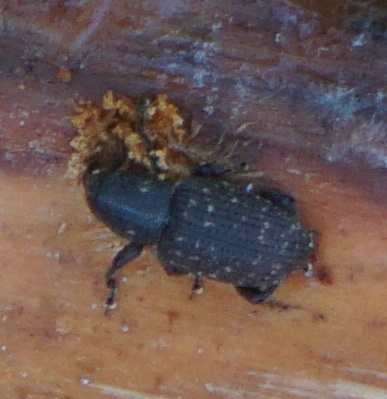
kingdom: Animalia
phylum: Arthropoda
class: Insecta
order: Coleoptera
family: Curculionidae
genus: Pachylobius
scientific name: Pachylobius picivorus
